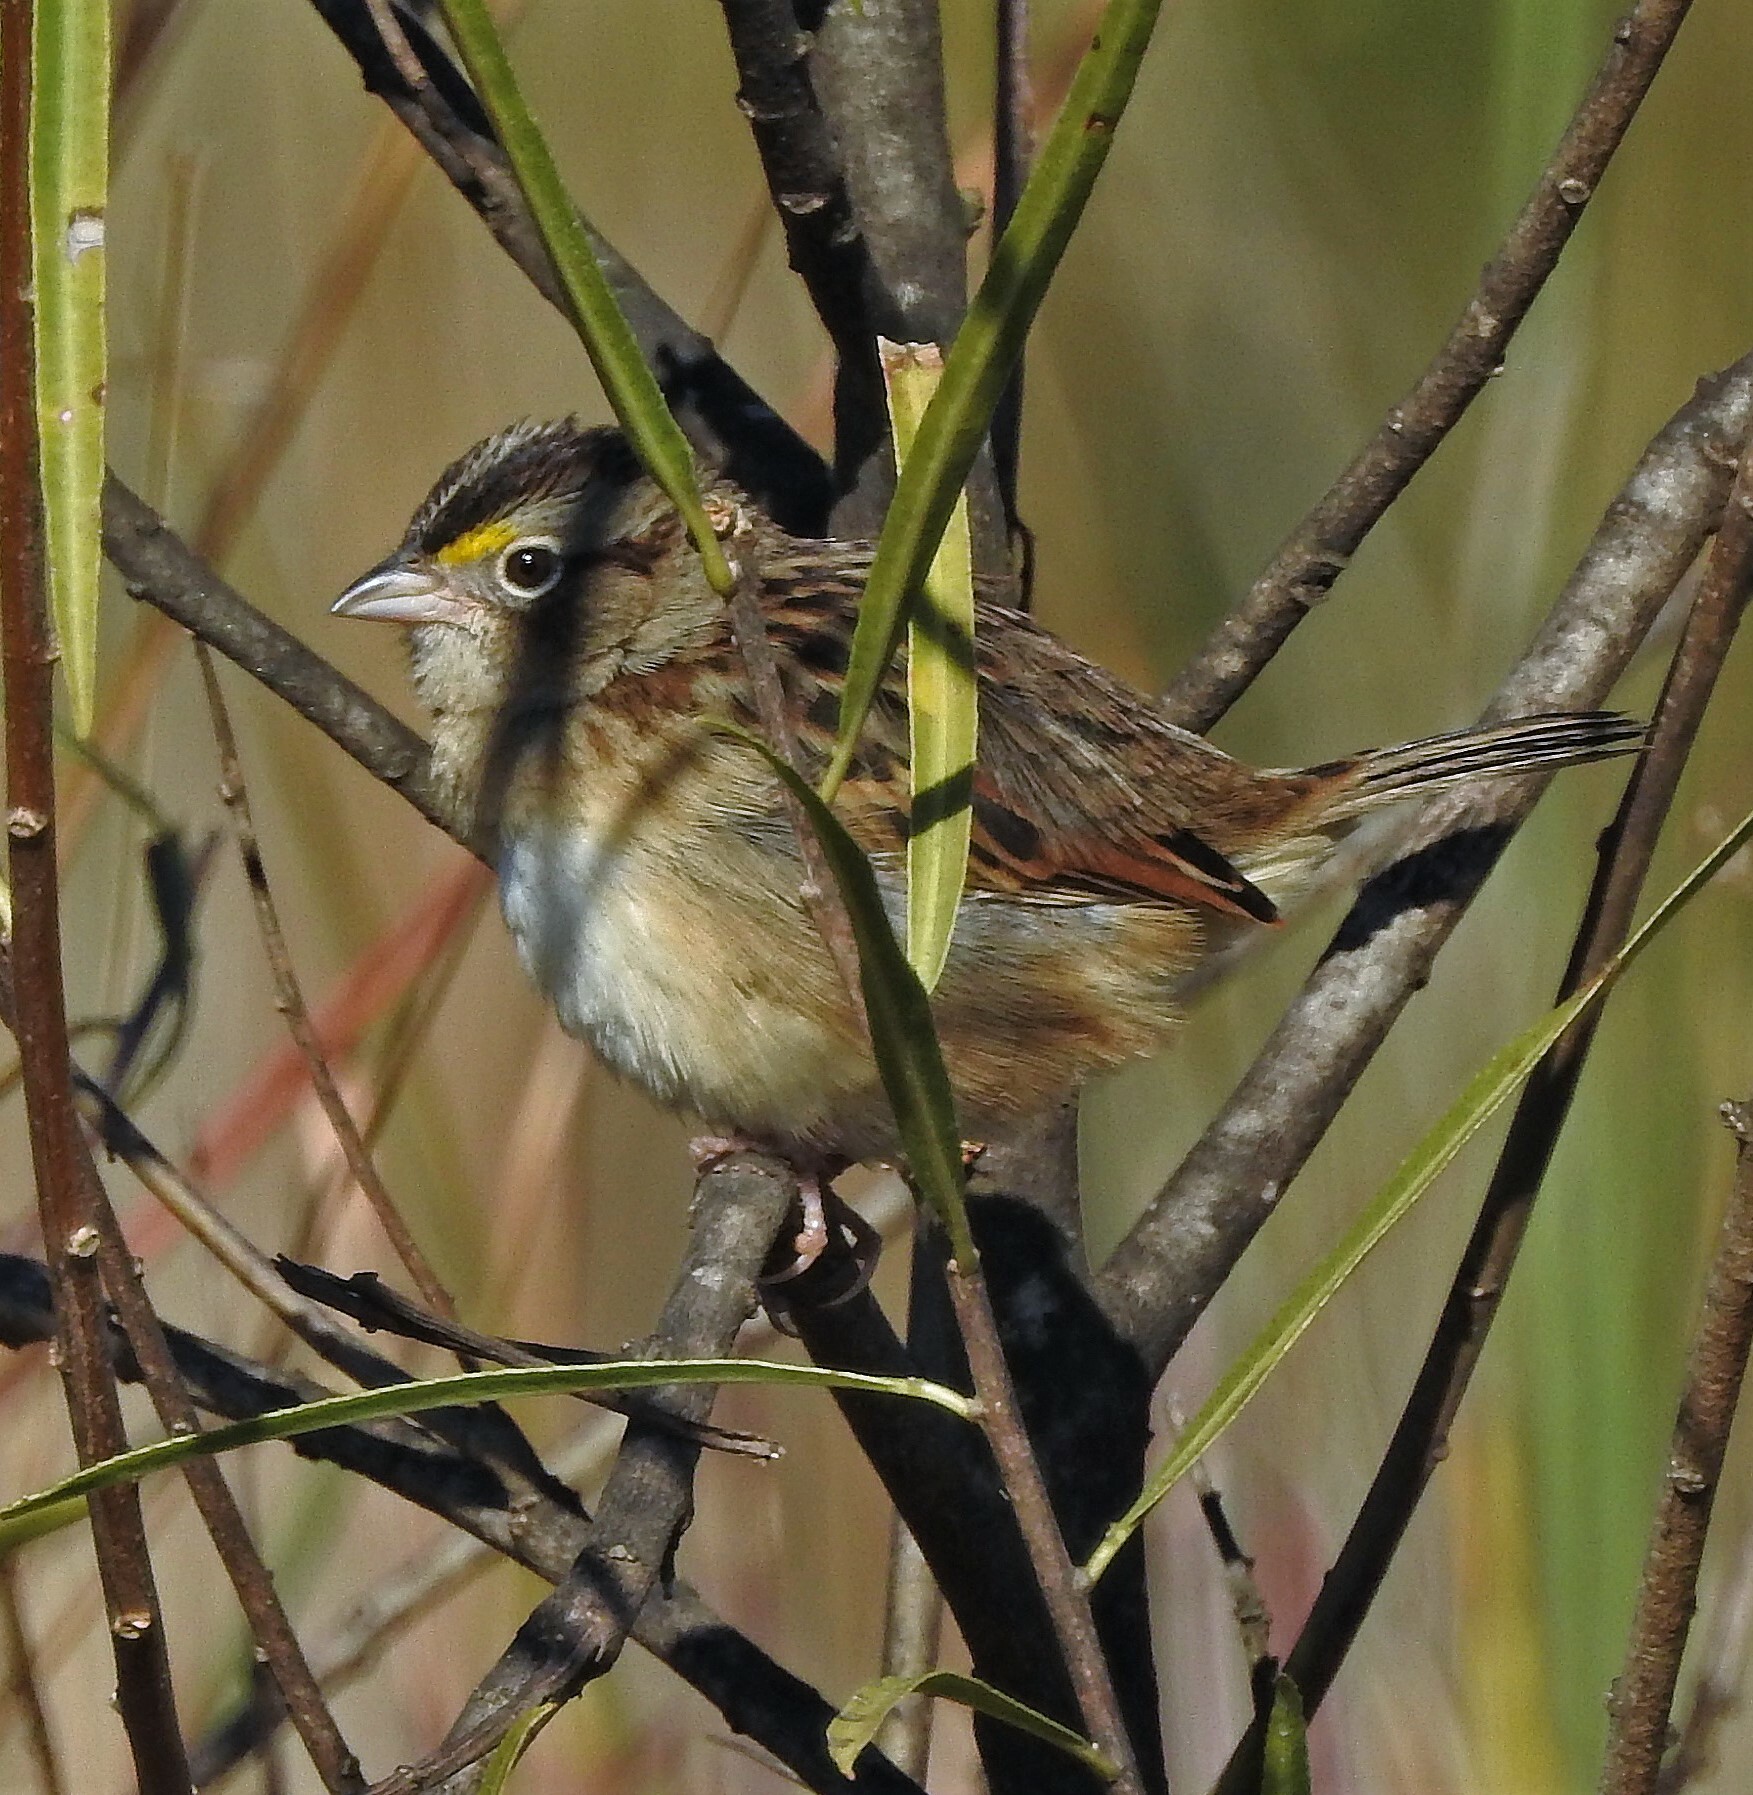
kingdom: Animalia
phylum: Chordata
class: Aves
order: Passeriformes
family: Passerellidae
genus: Ammodramus
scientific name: Ammodramus humeralis
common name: Grassland sparrow
